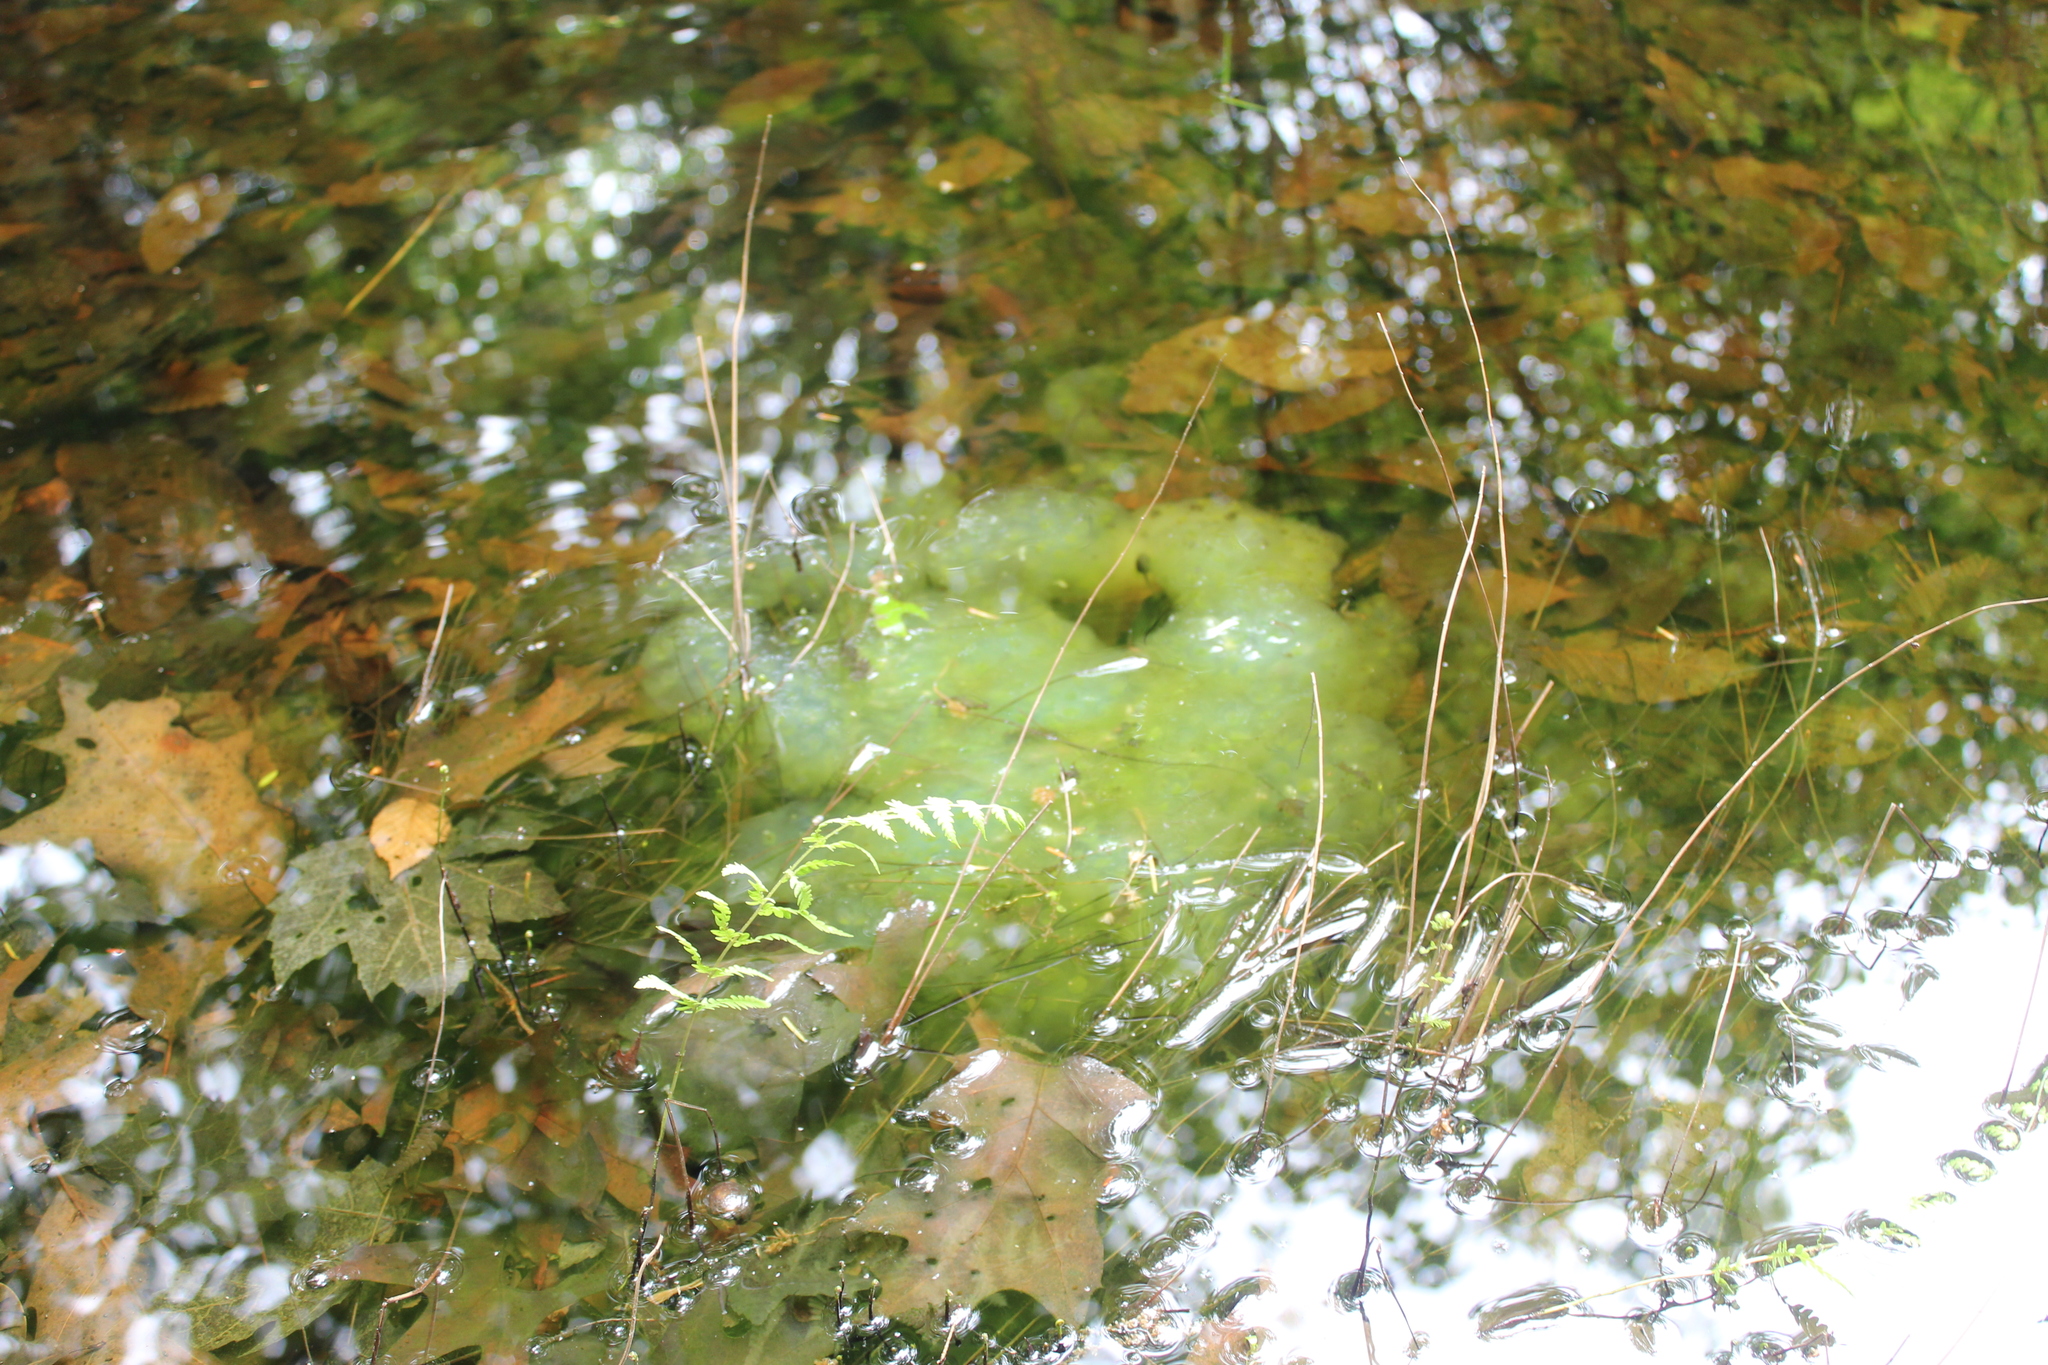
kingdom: Animalia
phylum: Chordata
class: Amphibia
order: Caudata
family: Ambystomatidae
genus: Ambystoma
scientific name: Ambystoma maculatum
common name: Spotted salamander
